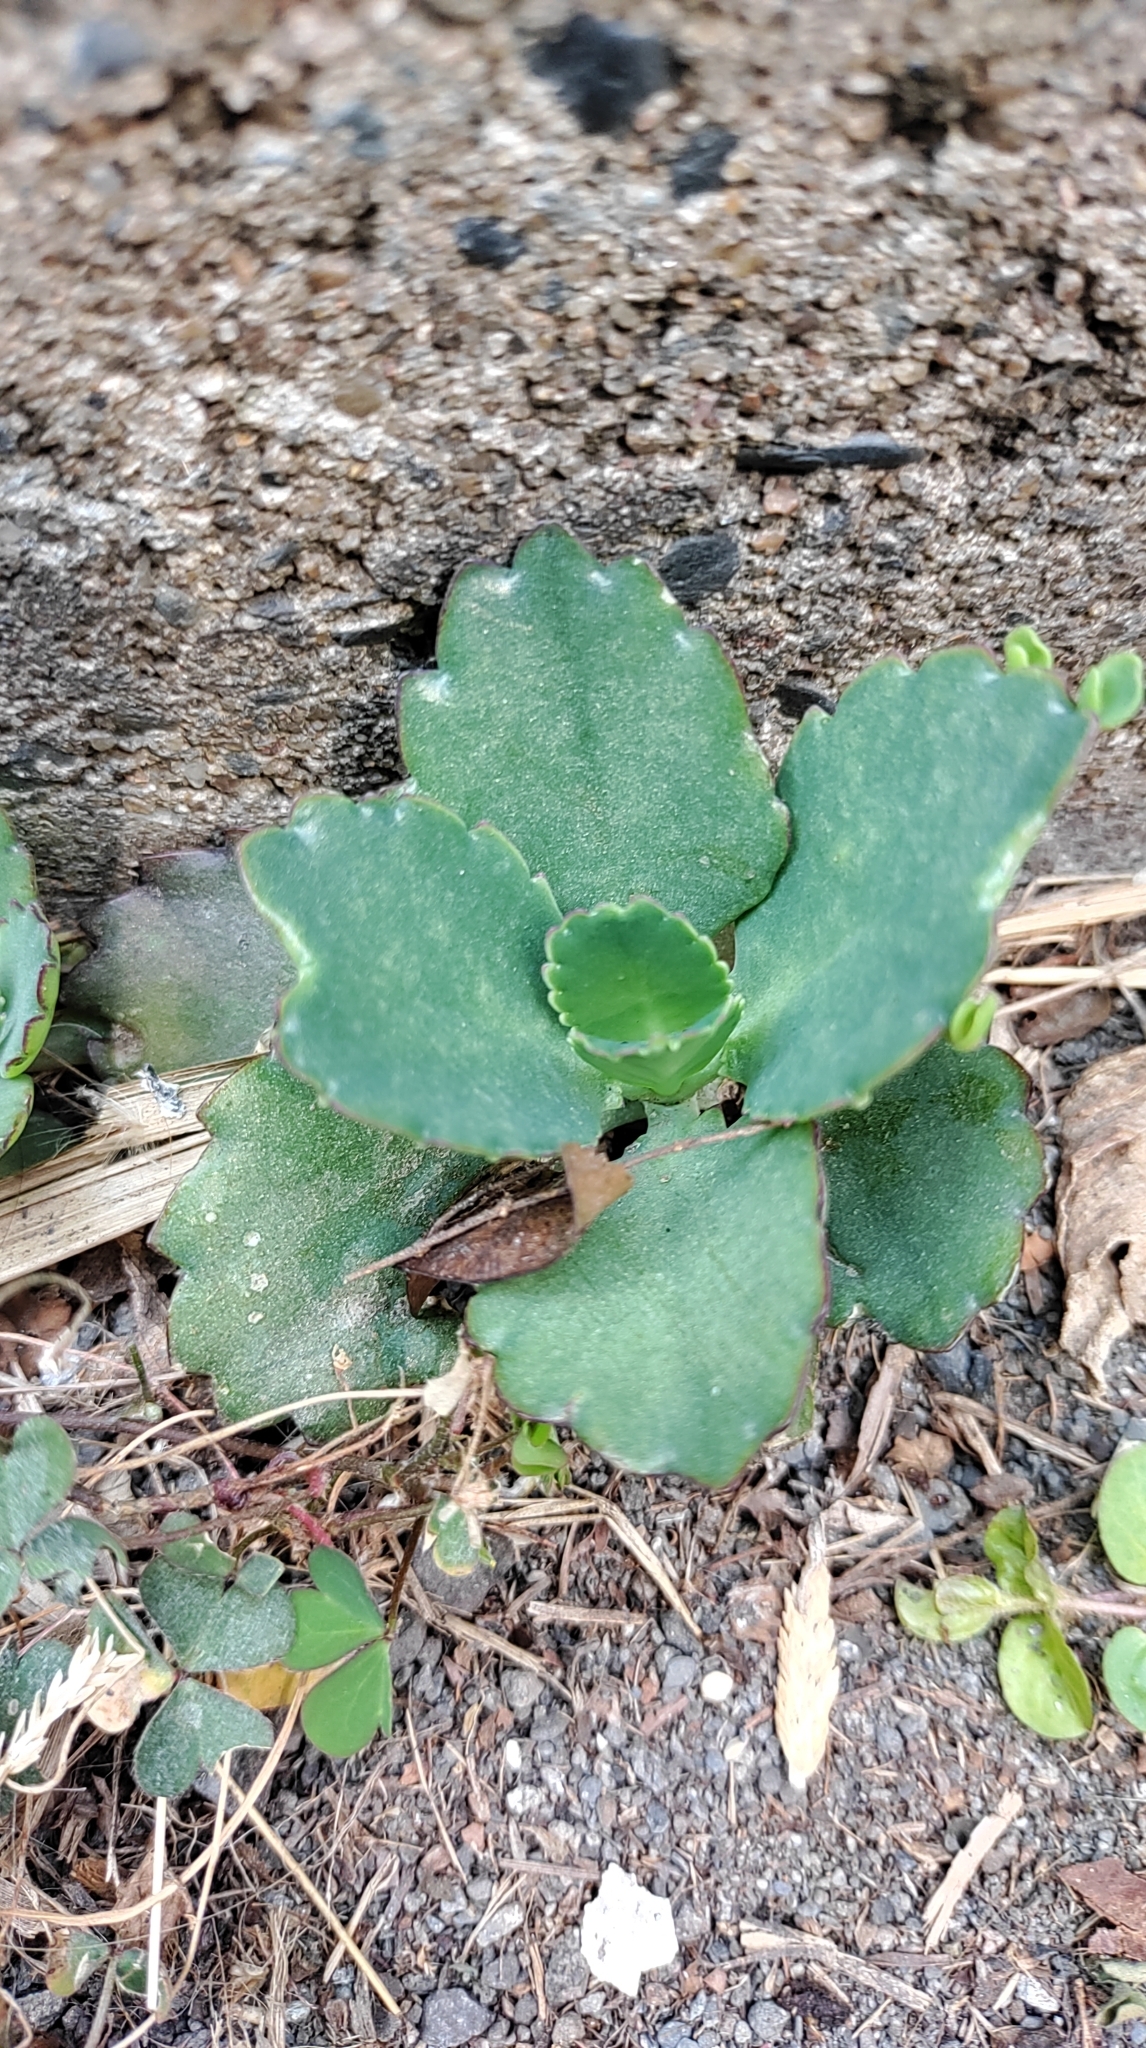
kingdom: Plantae
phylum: Tracheophyta
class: Magnoliopsida
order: Saxifragales
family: Crassulaceae
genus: Kalanchoe
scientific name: Kalanchoe pinnata
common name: Cathedral bells
